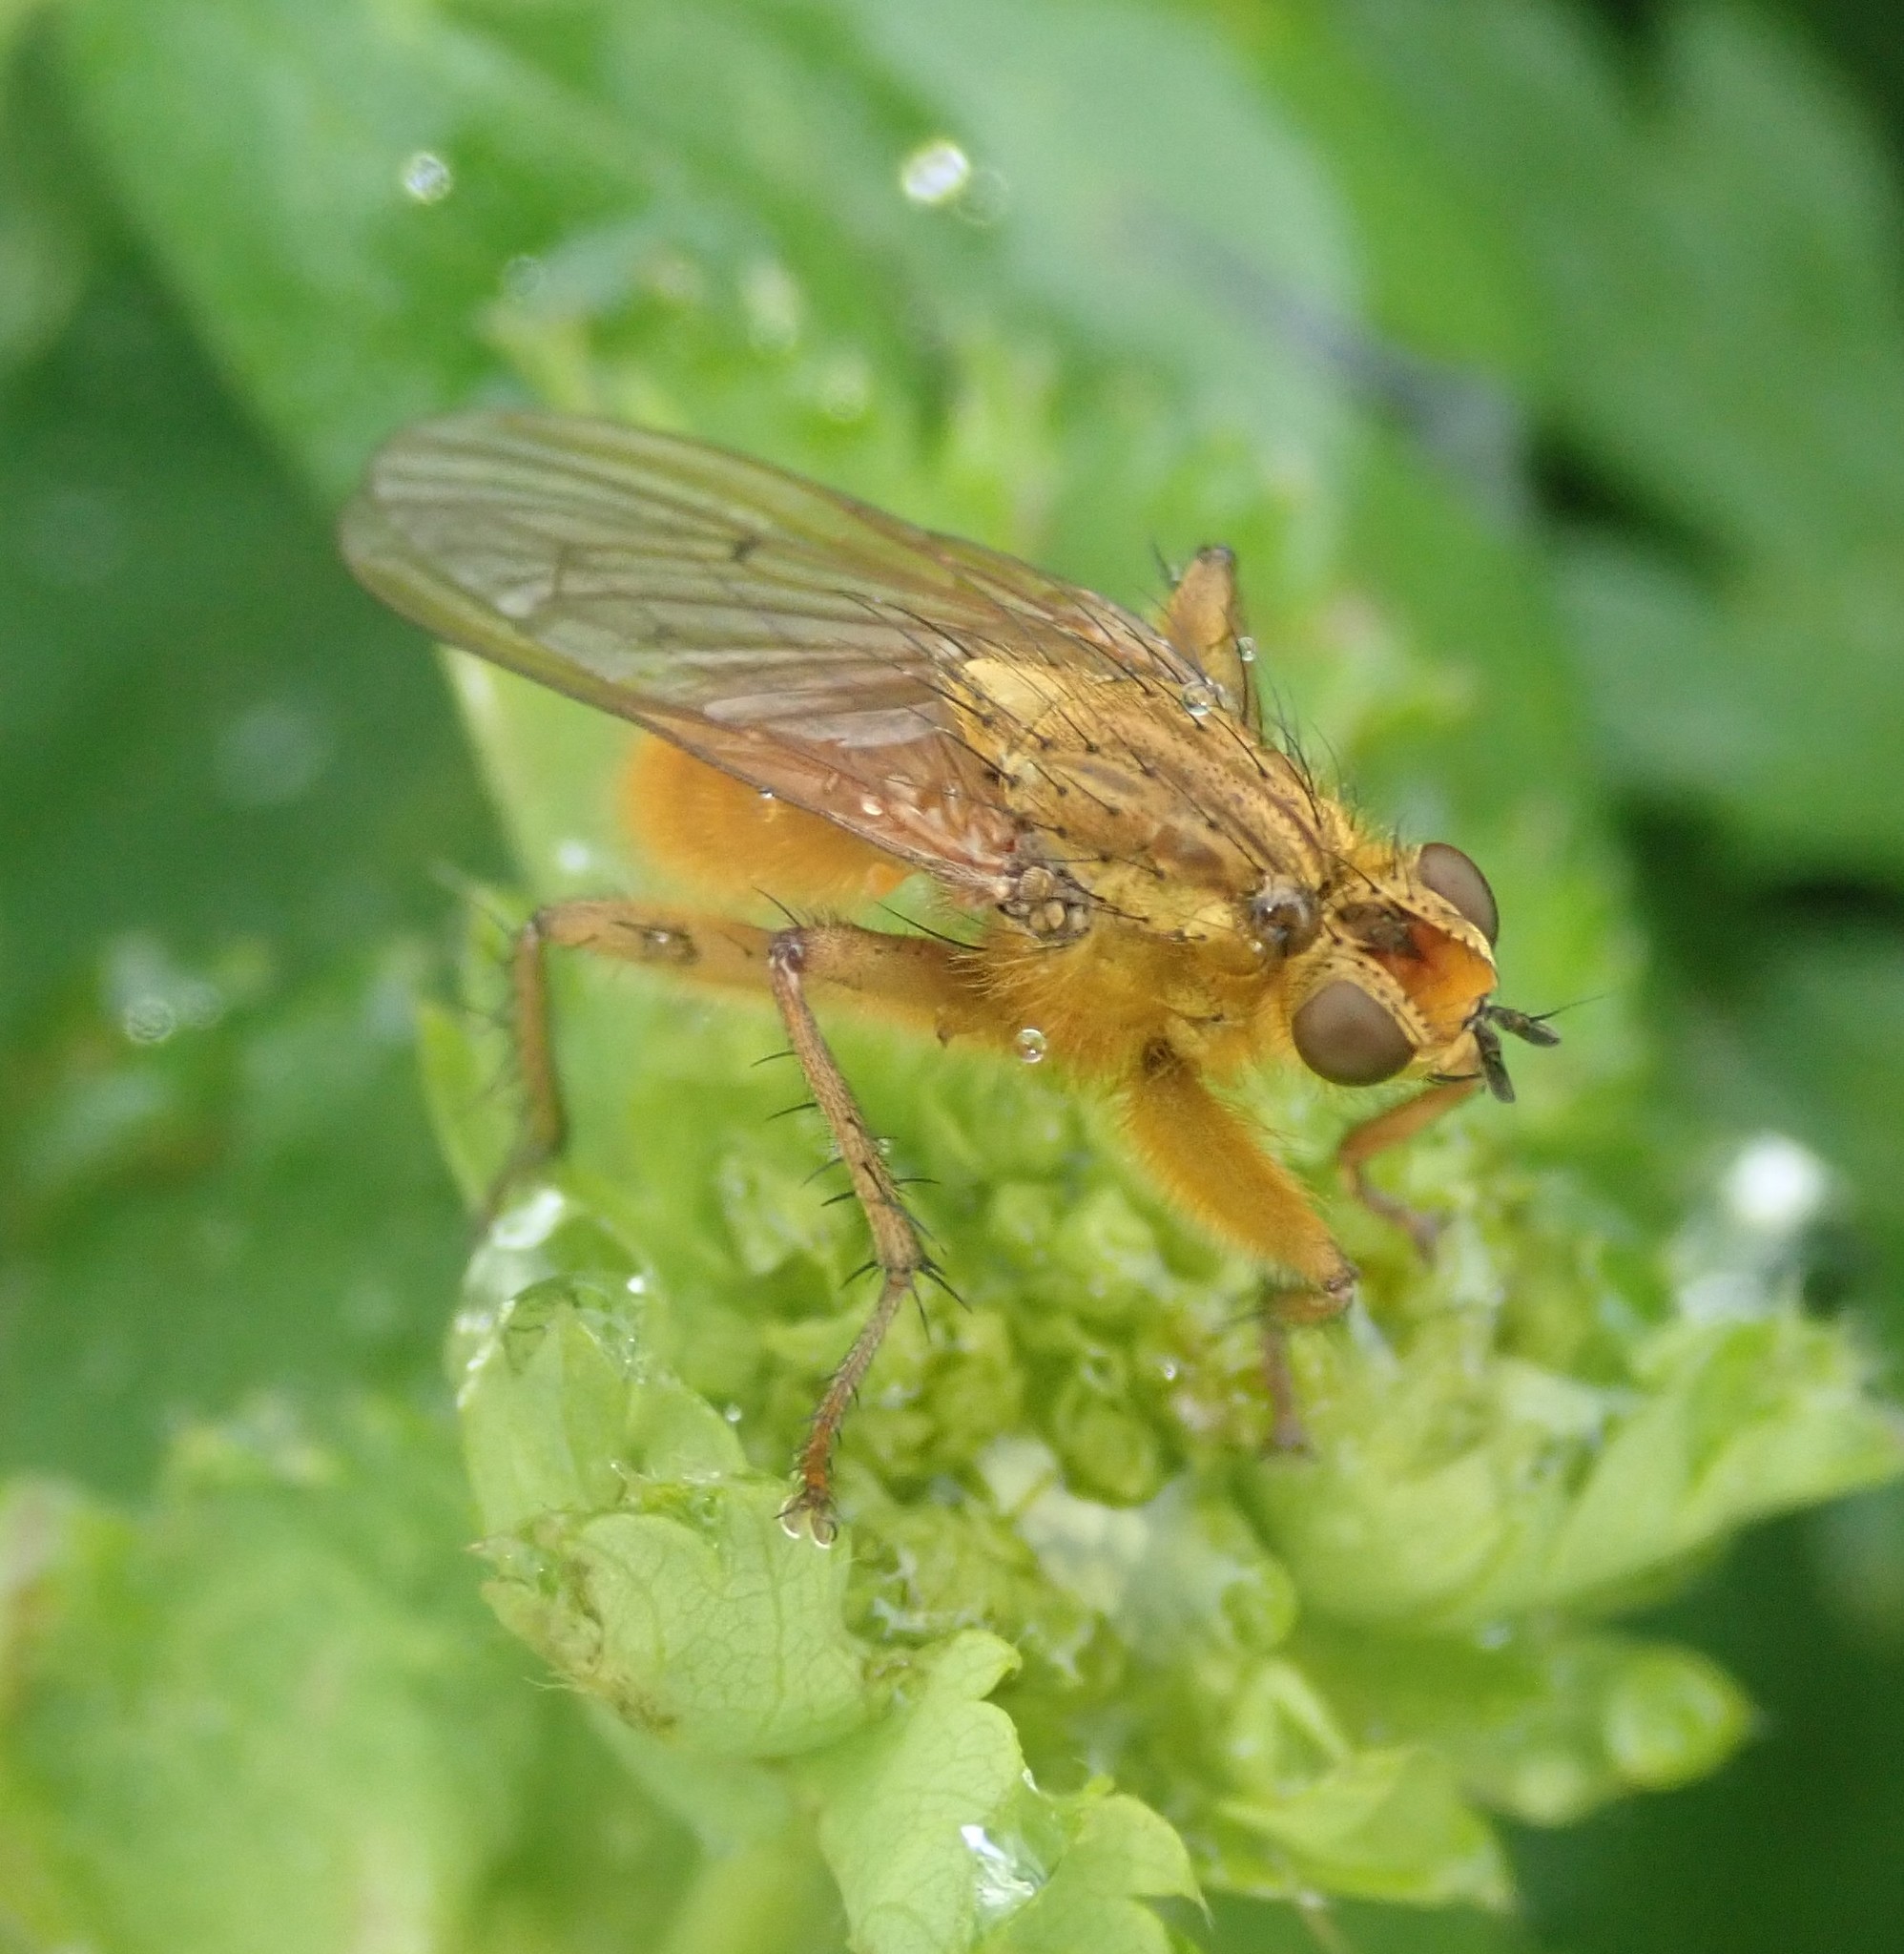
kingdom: Animalia
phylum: Arthropoda
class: Insecta
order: Diptera
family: Scathophagidae
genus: Scathophaga
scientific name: Scathophaga stercoraria
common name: Yellow dung fly
